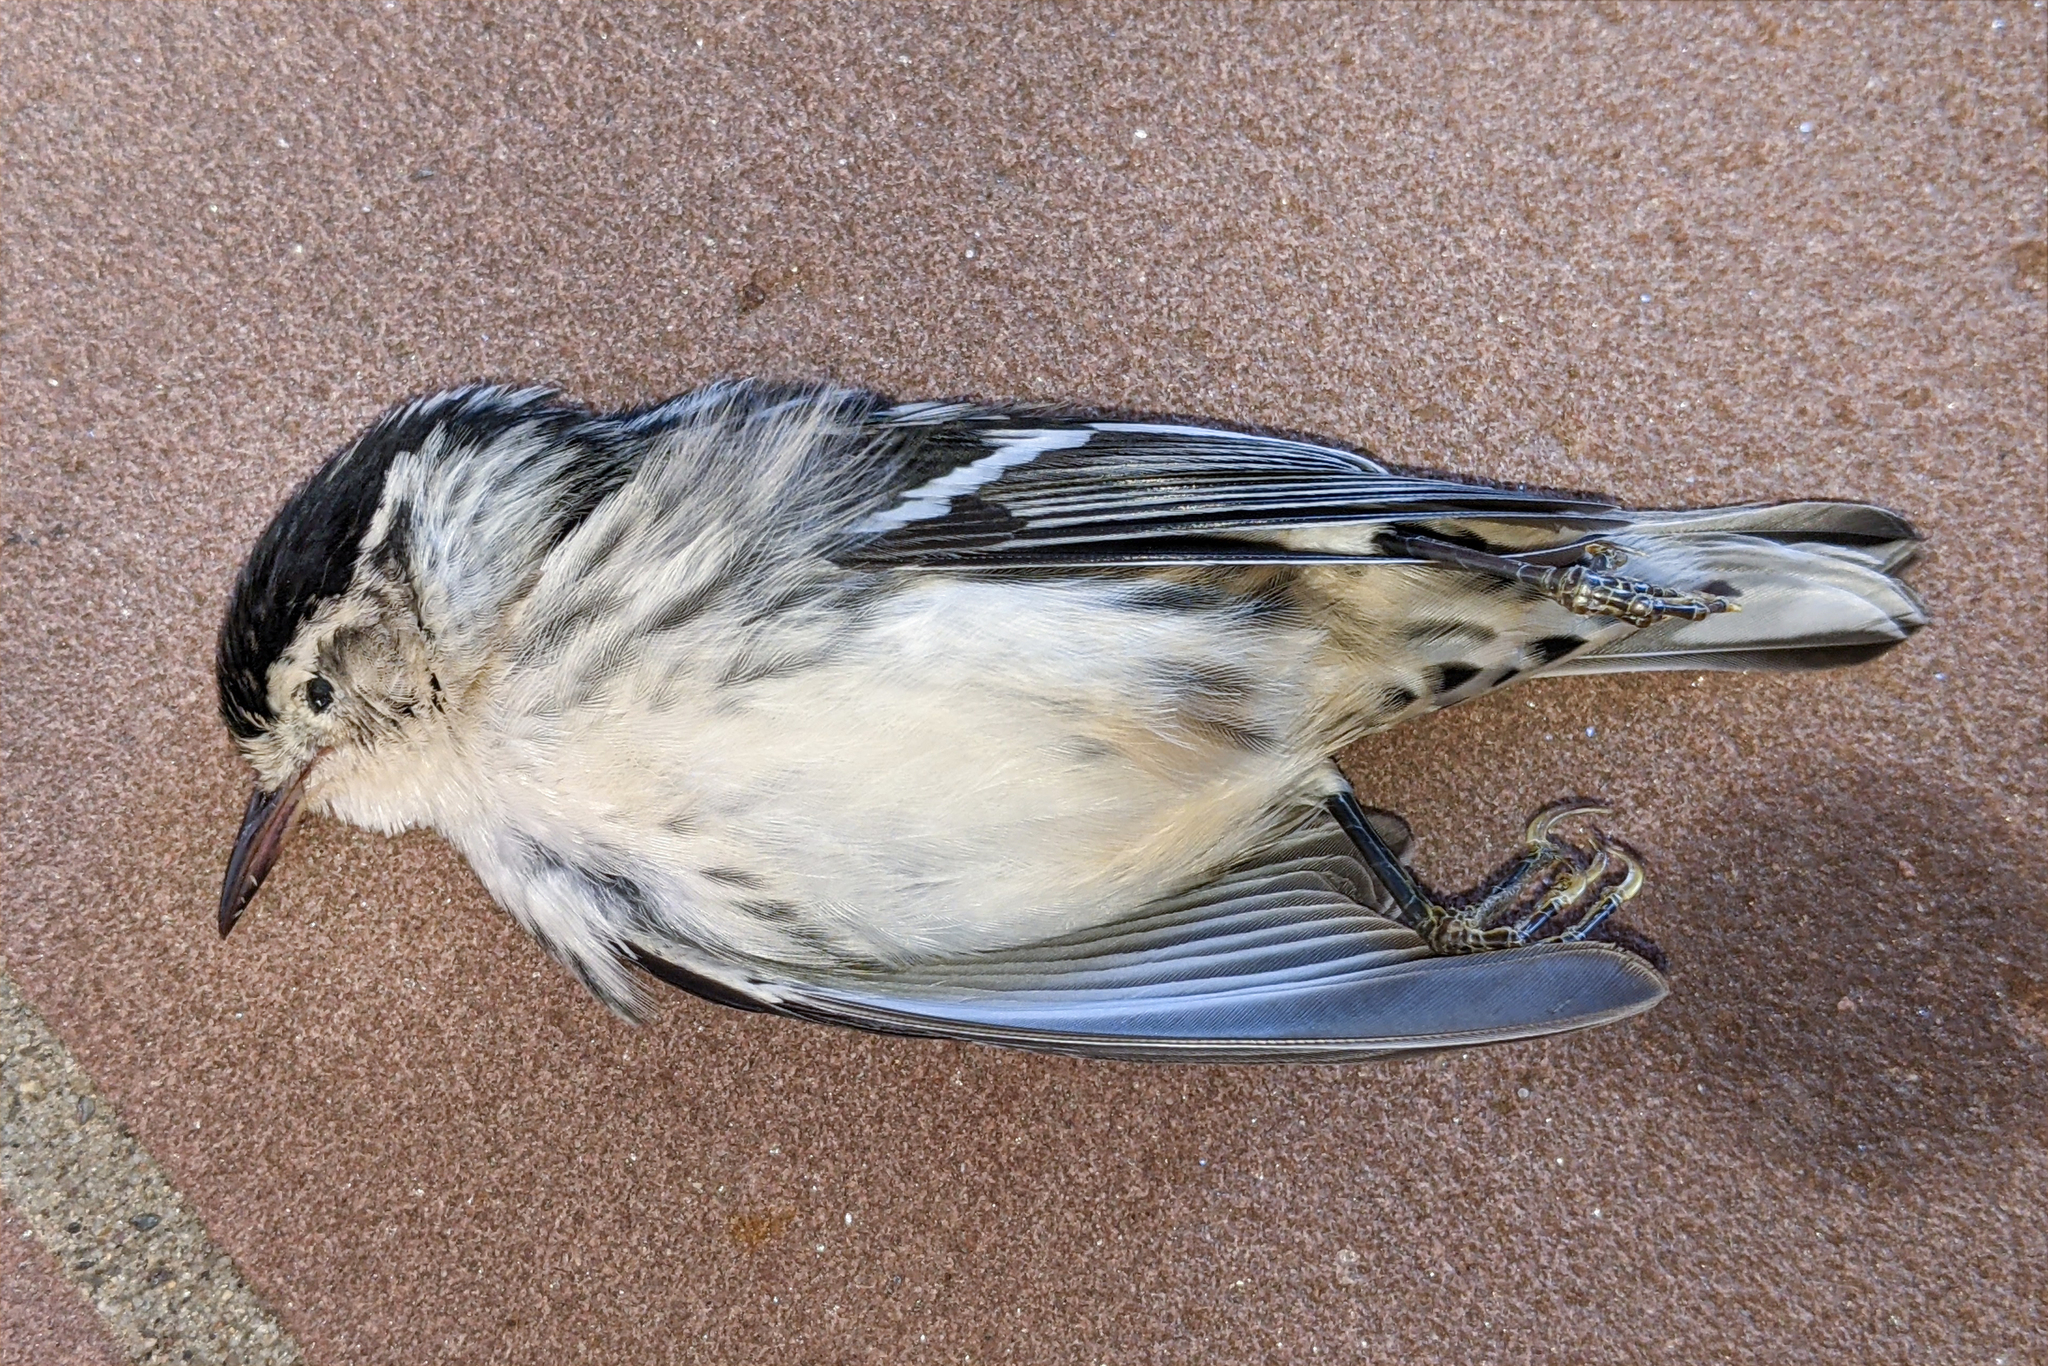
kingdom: Animalia
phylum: Chordata
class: Aves
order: Passeriformes
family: Parulidae
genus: Mniotilta
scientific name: Mniotilta varia
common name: Black-and-white warbler
